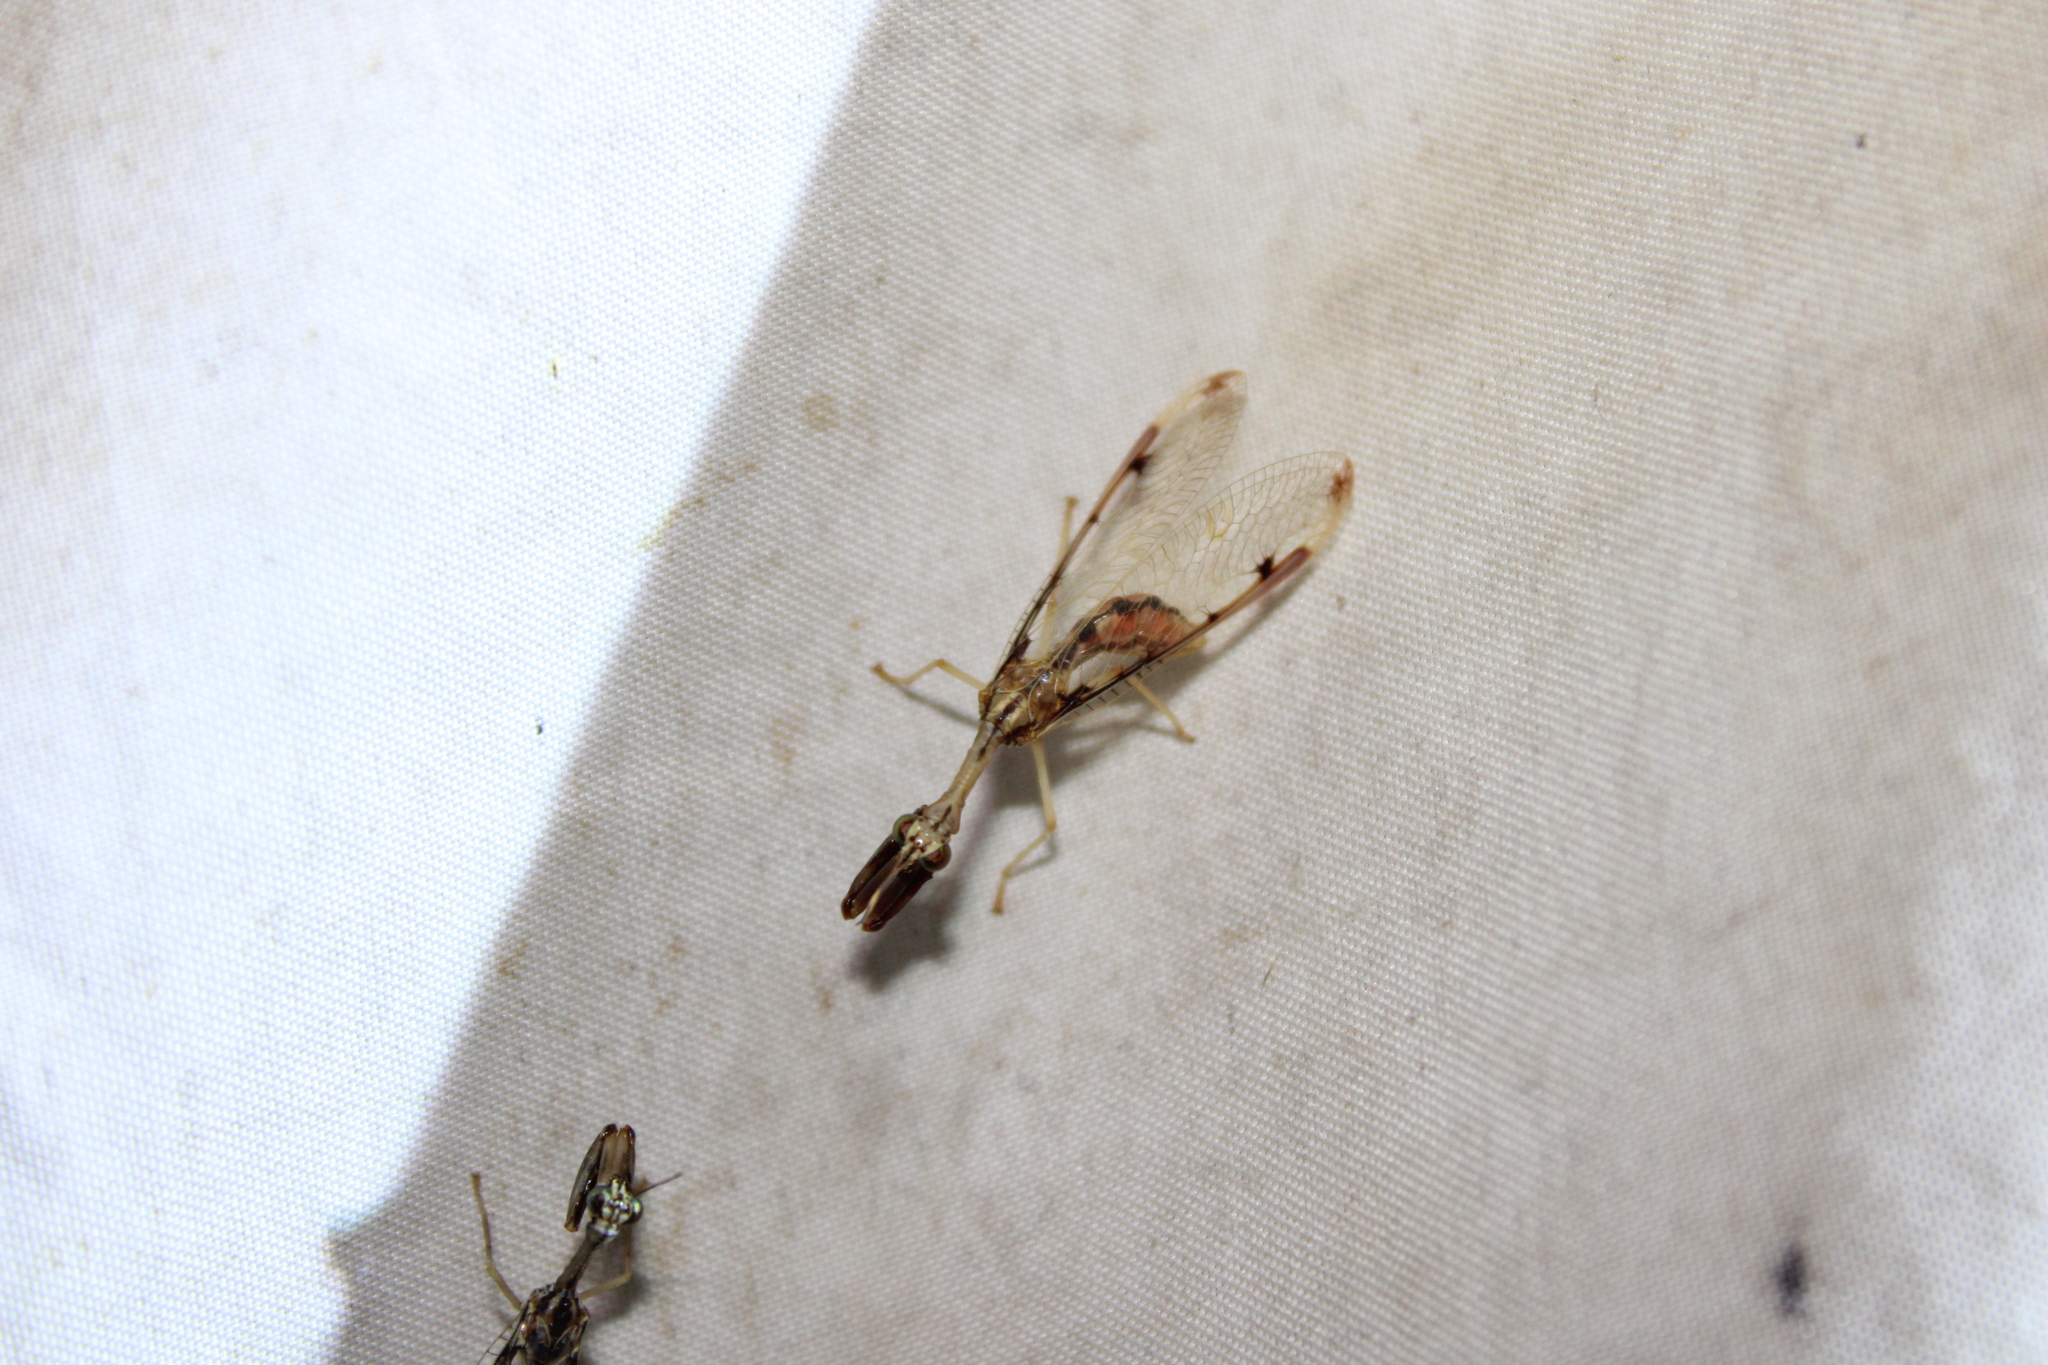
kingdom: Animalia
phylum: Arthropoda
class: Insecta
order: Neuroptera
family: Mantispidae
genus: Dicromantispa
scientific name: Dicromantispa interrupta
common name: Four-spotted mantidfly
